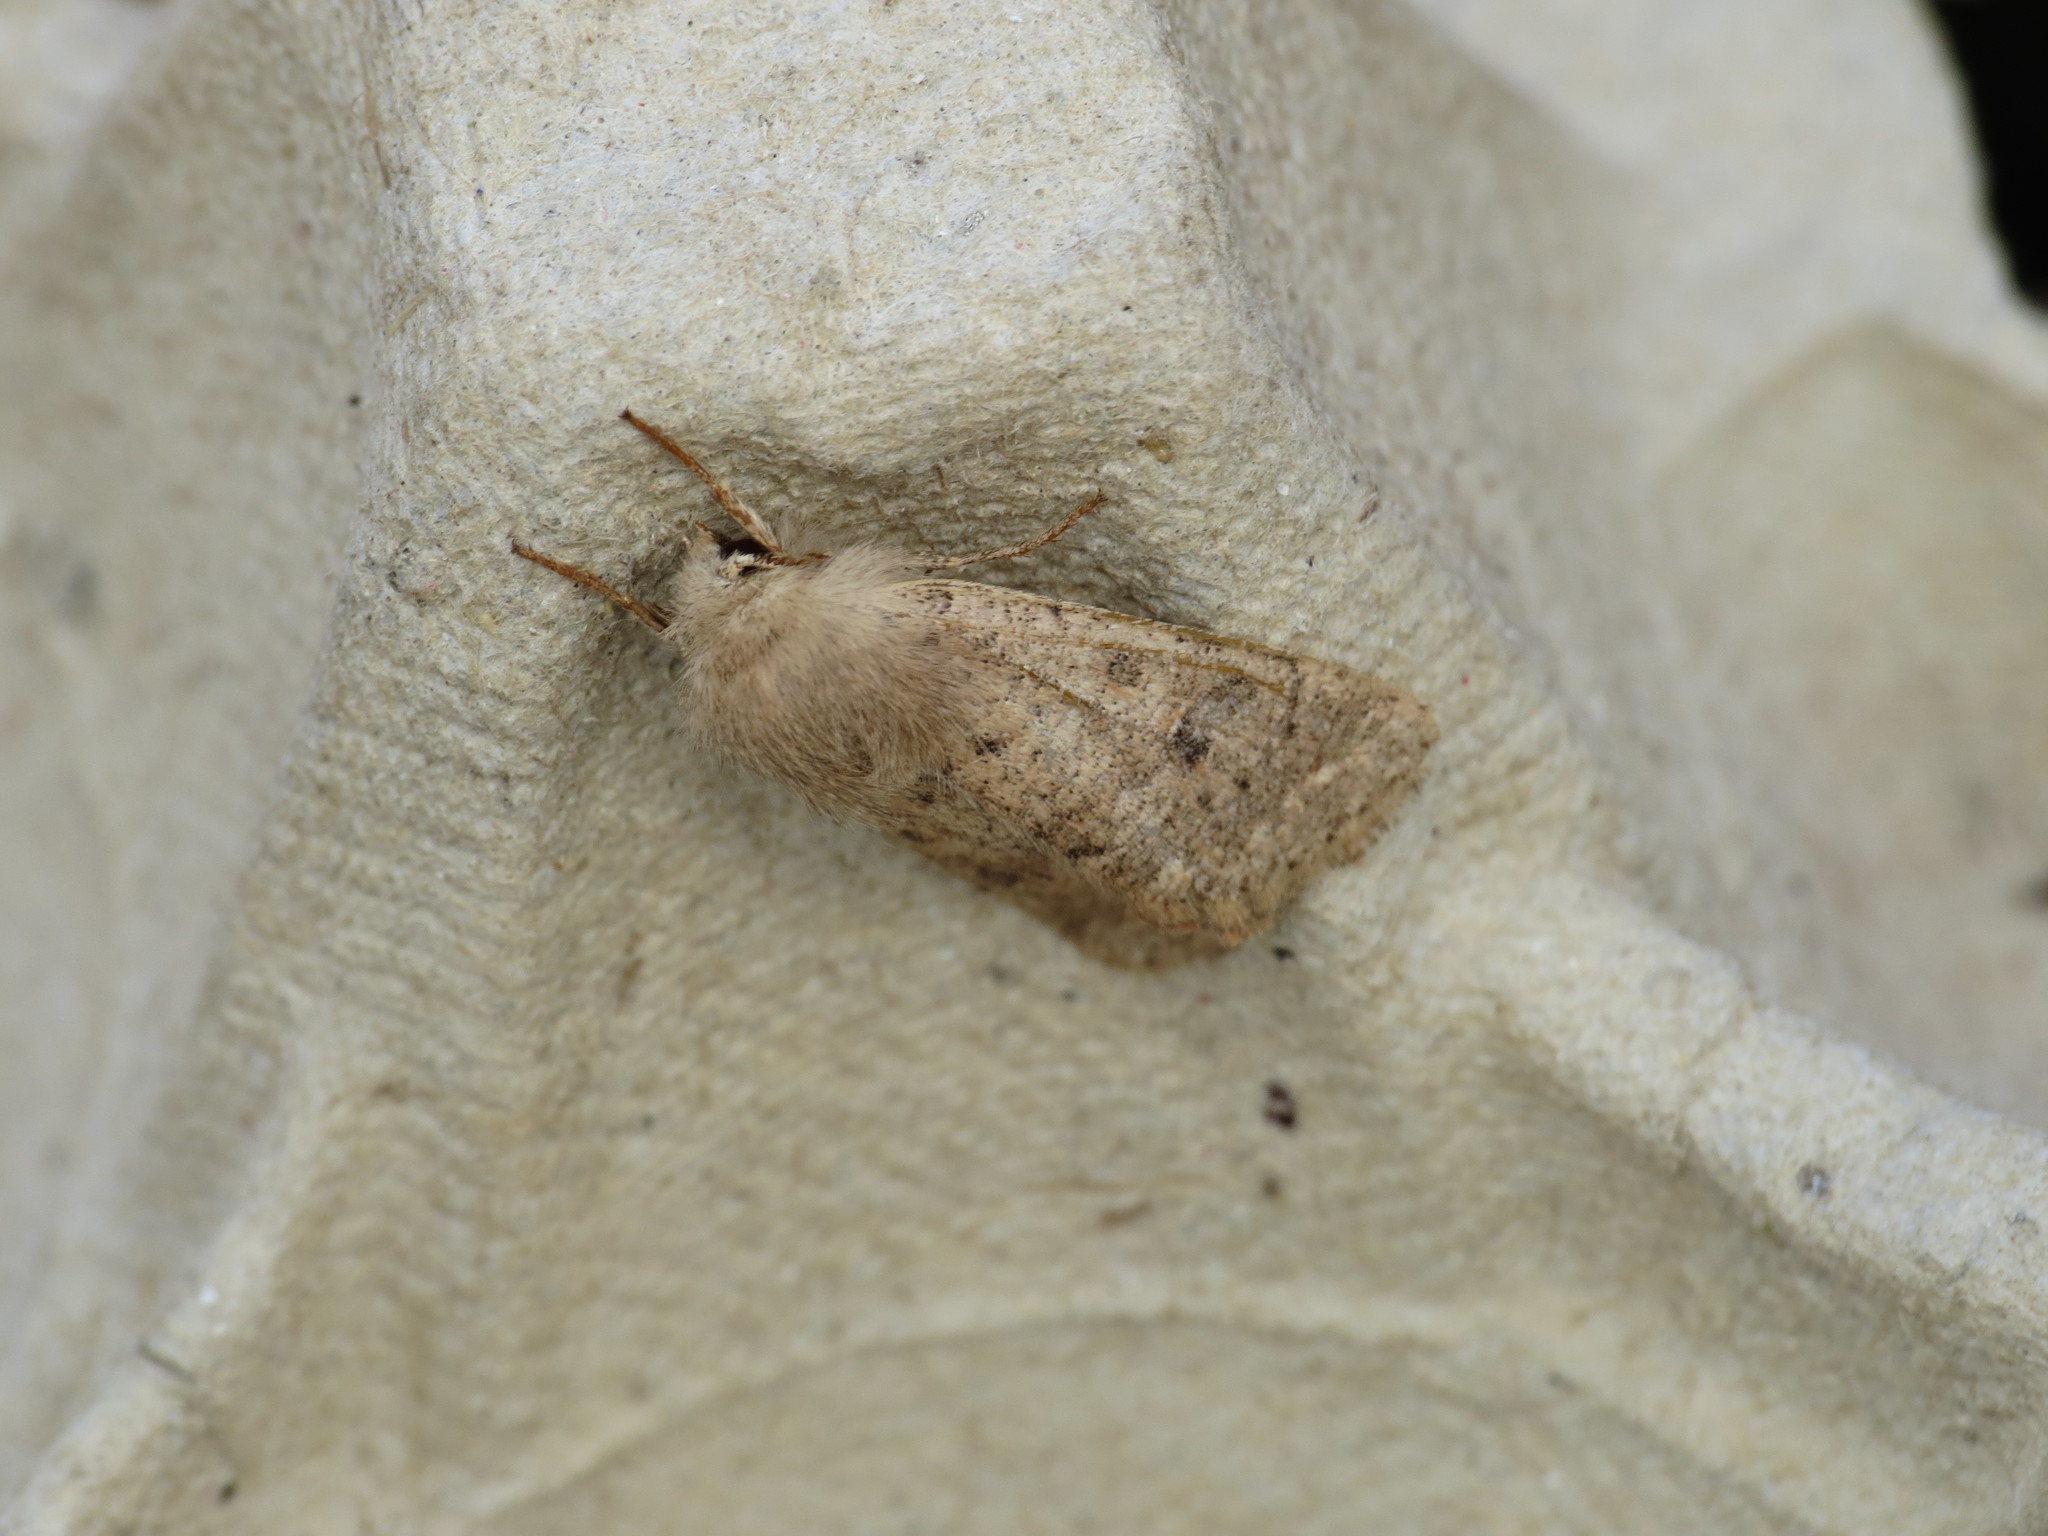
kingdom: Animalia
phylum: Arthropoda
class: Insecta
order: Lepidoptera
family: Noctuidae
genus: Orthosia
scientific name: Orthosia cruda
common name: Small quaker
